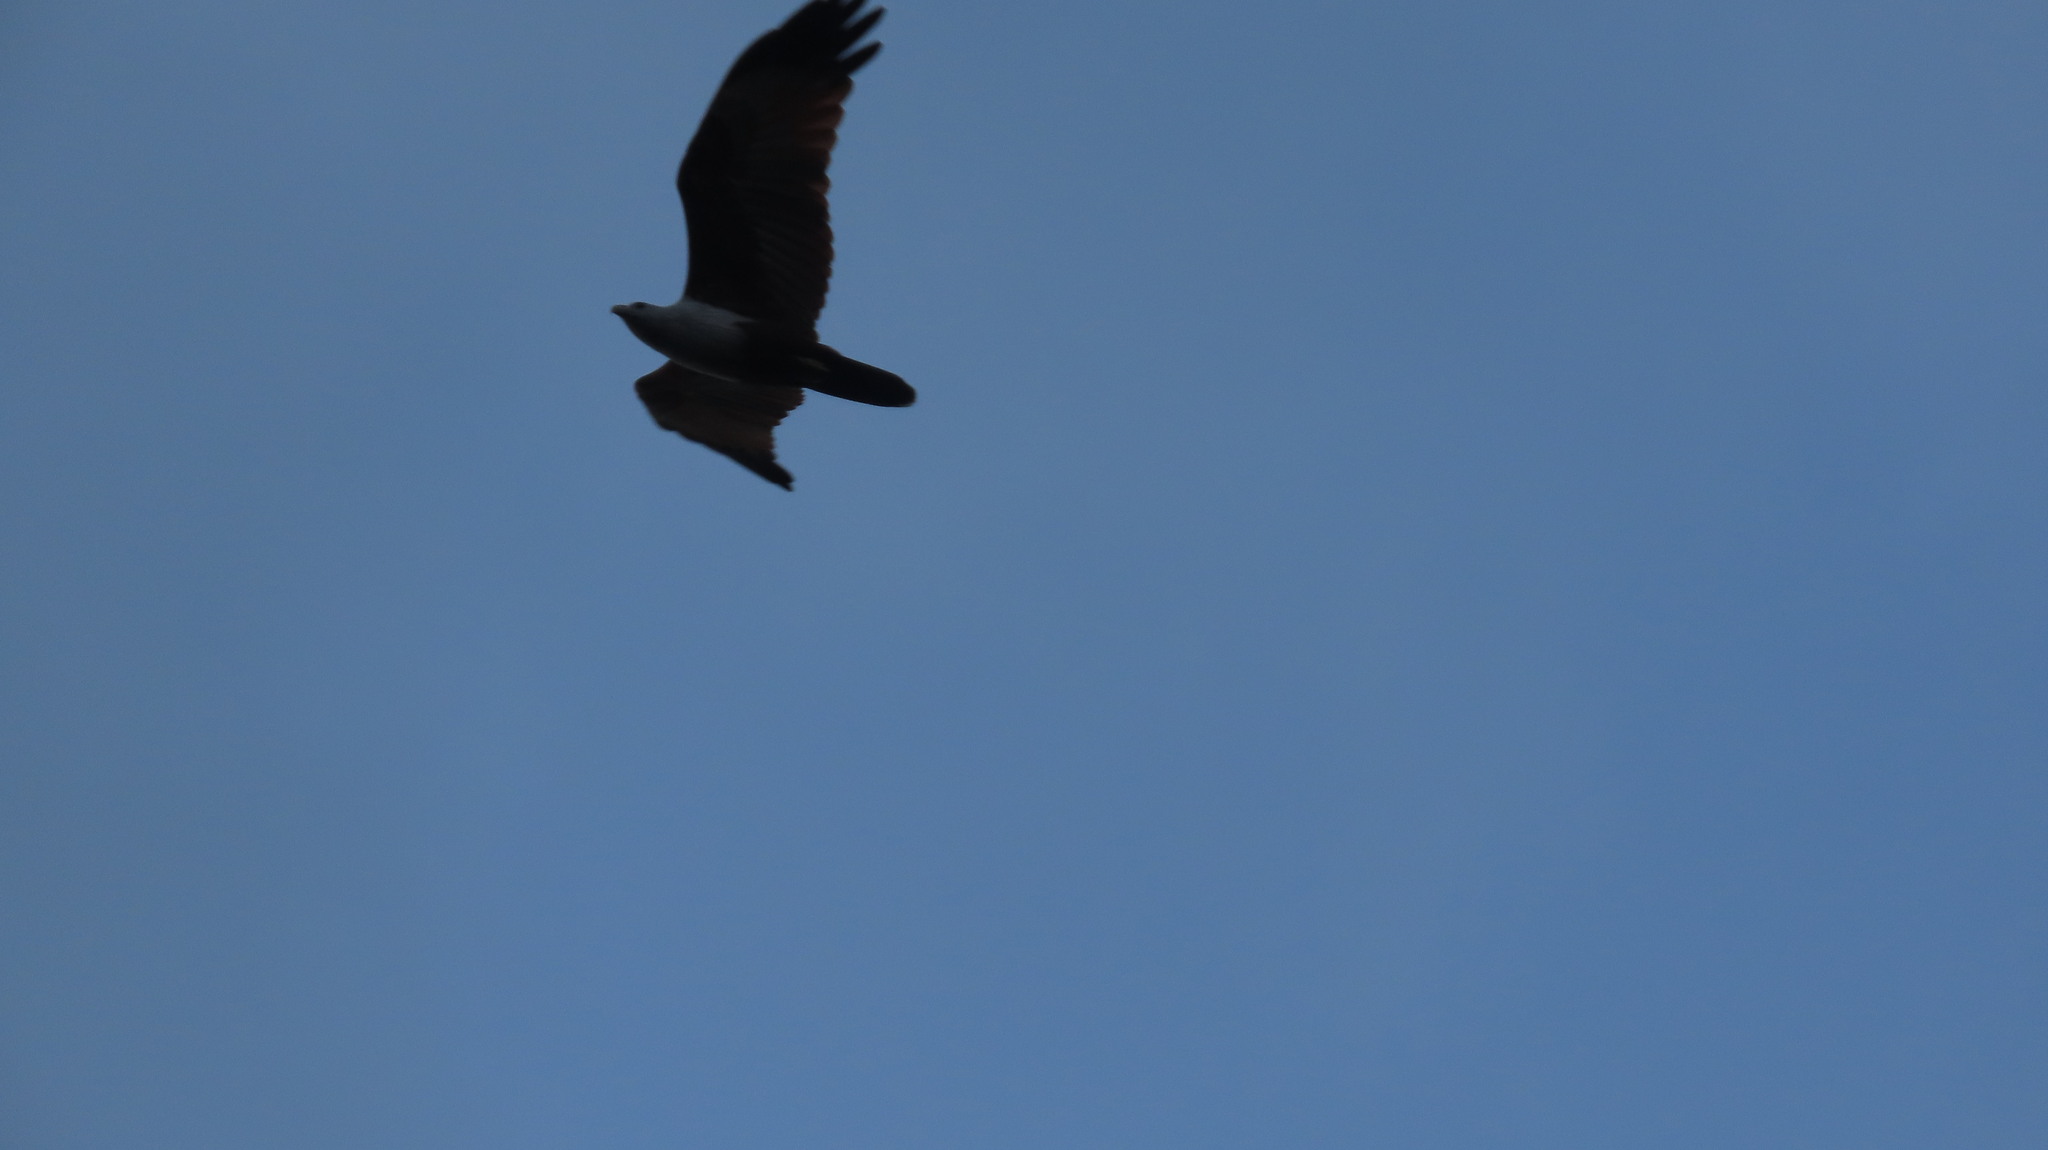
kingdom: Animalia
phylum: Chordata
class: Aves
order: Accipitriformes
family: Accipitridae
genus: Haliastur
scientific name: Haliastur indus
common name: Brahminy kite
